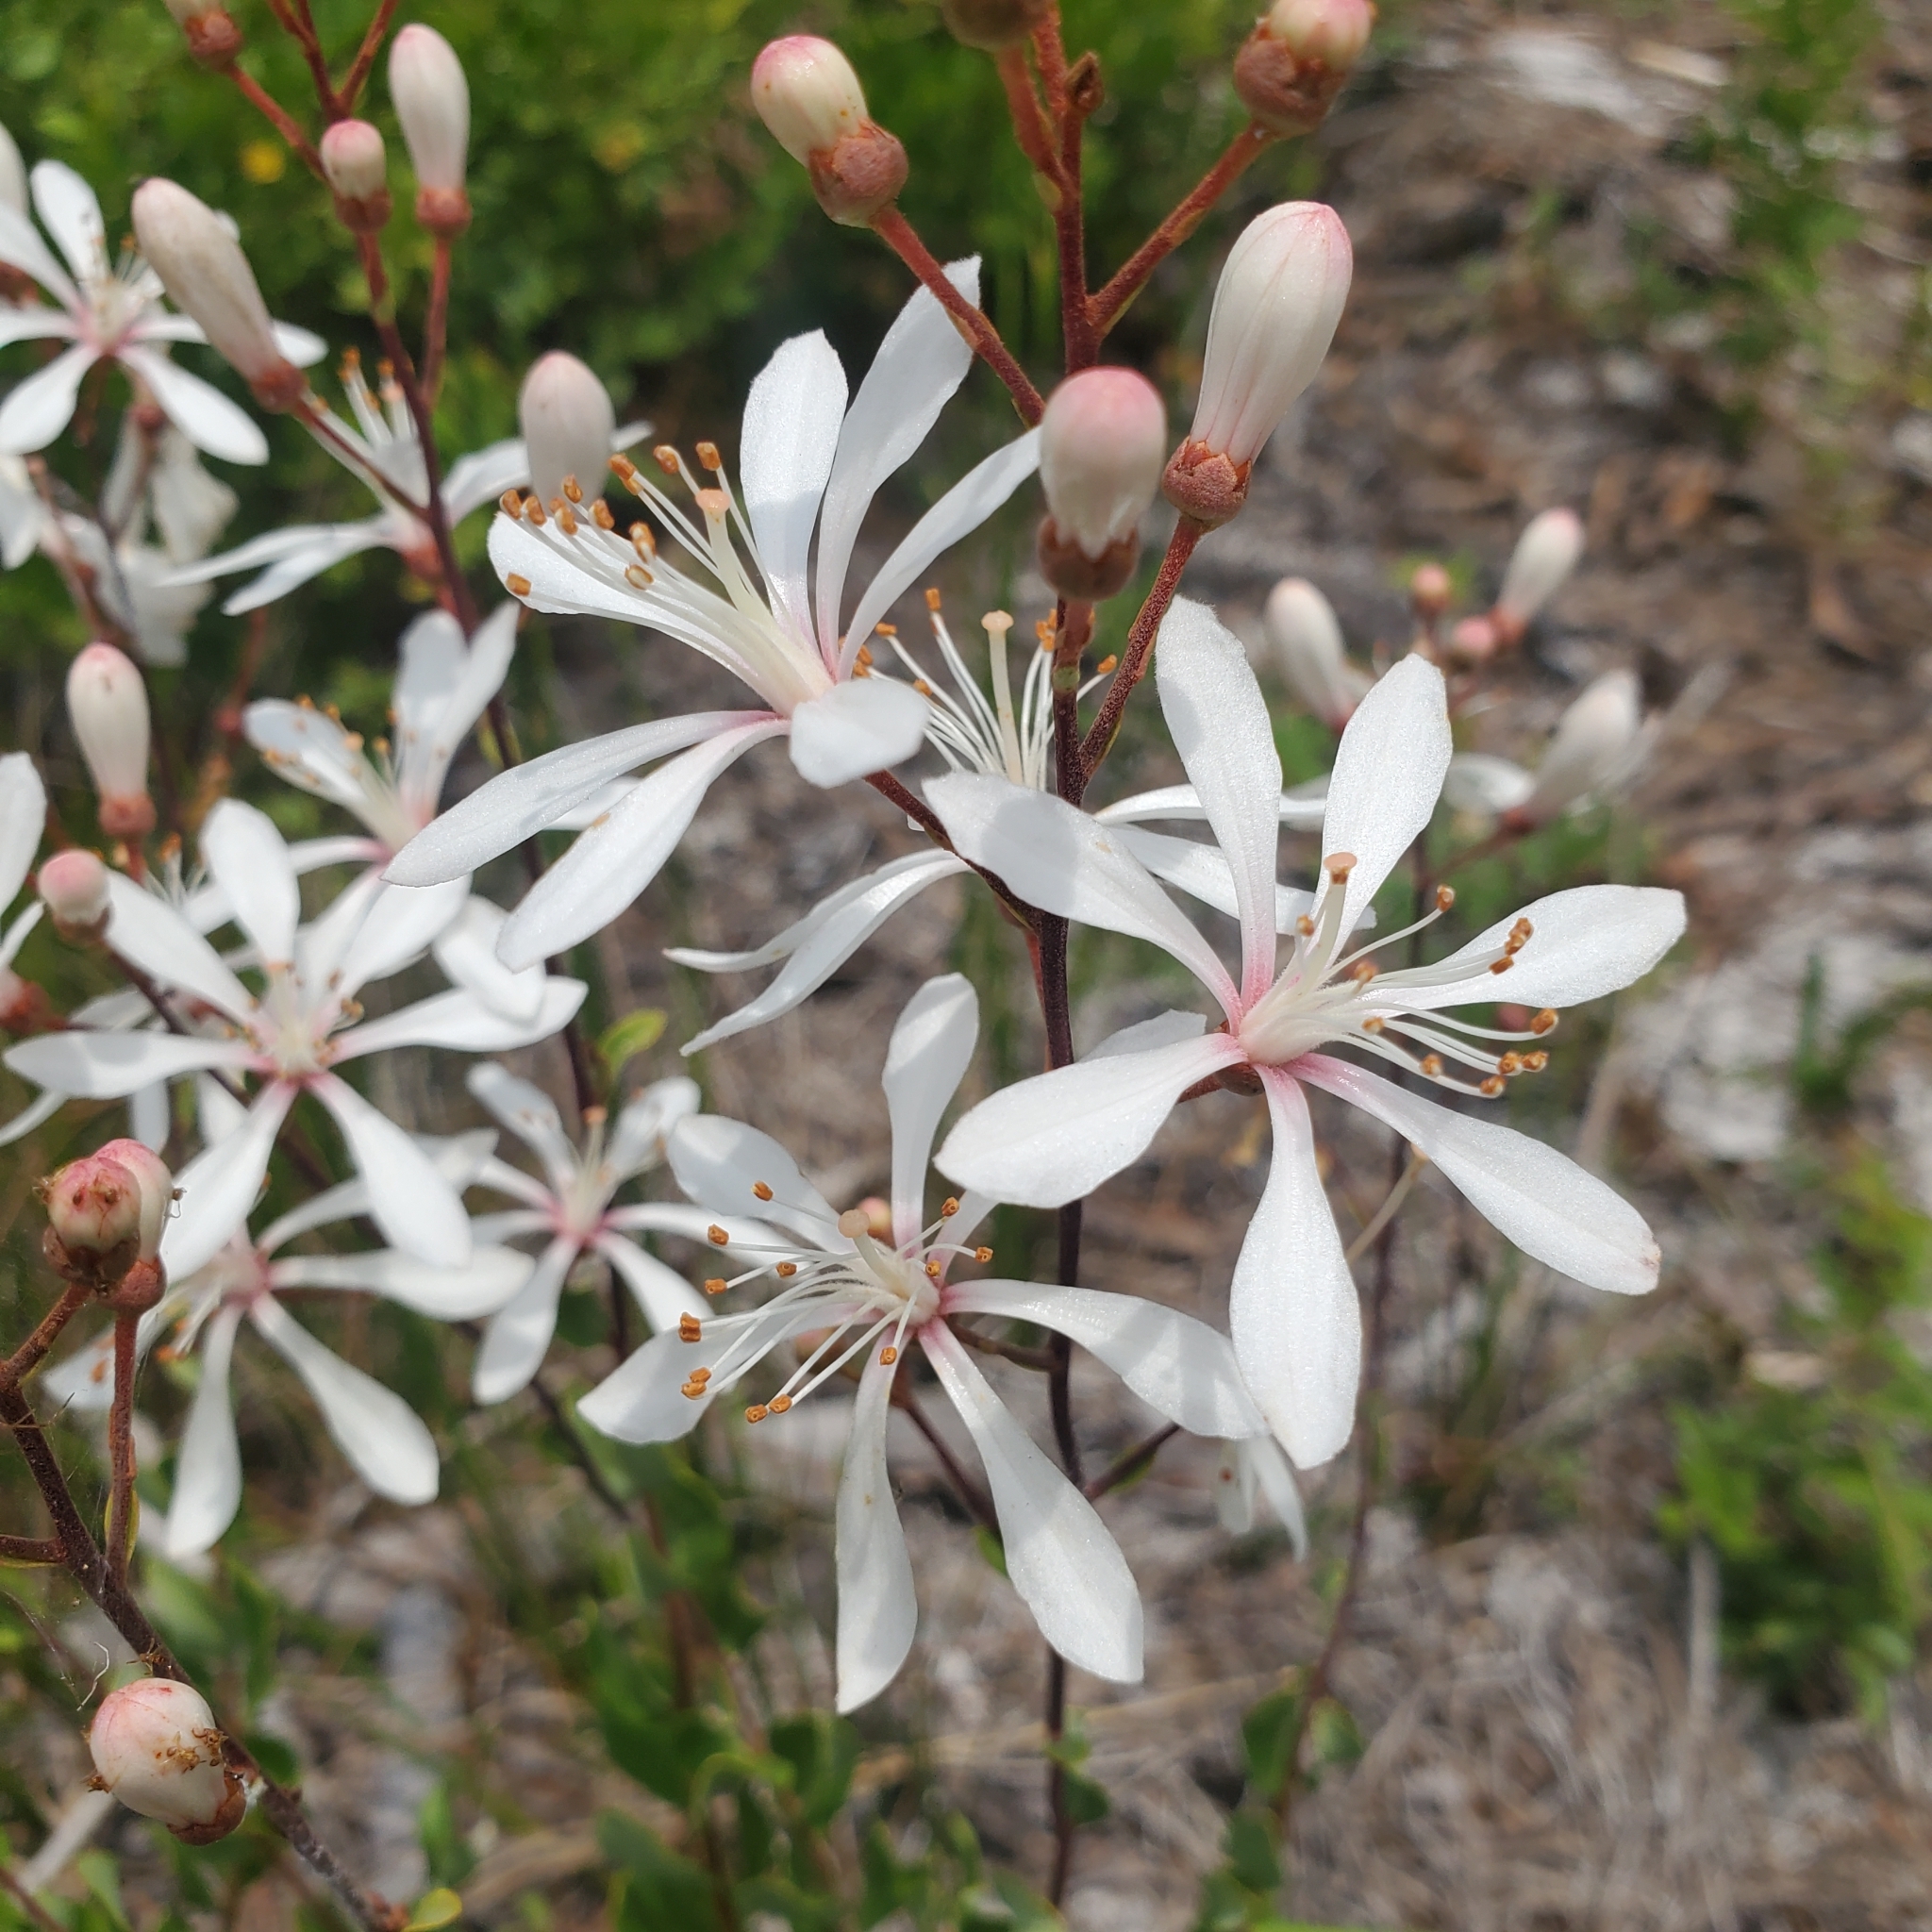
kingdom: Plantae
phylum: Tracheophyta
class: Magnoliopsida
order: Ericales
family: Ericaceae
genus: Bejaria
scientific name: Bejaria racemosa
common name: Tarflower
